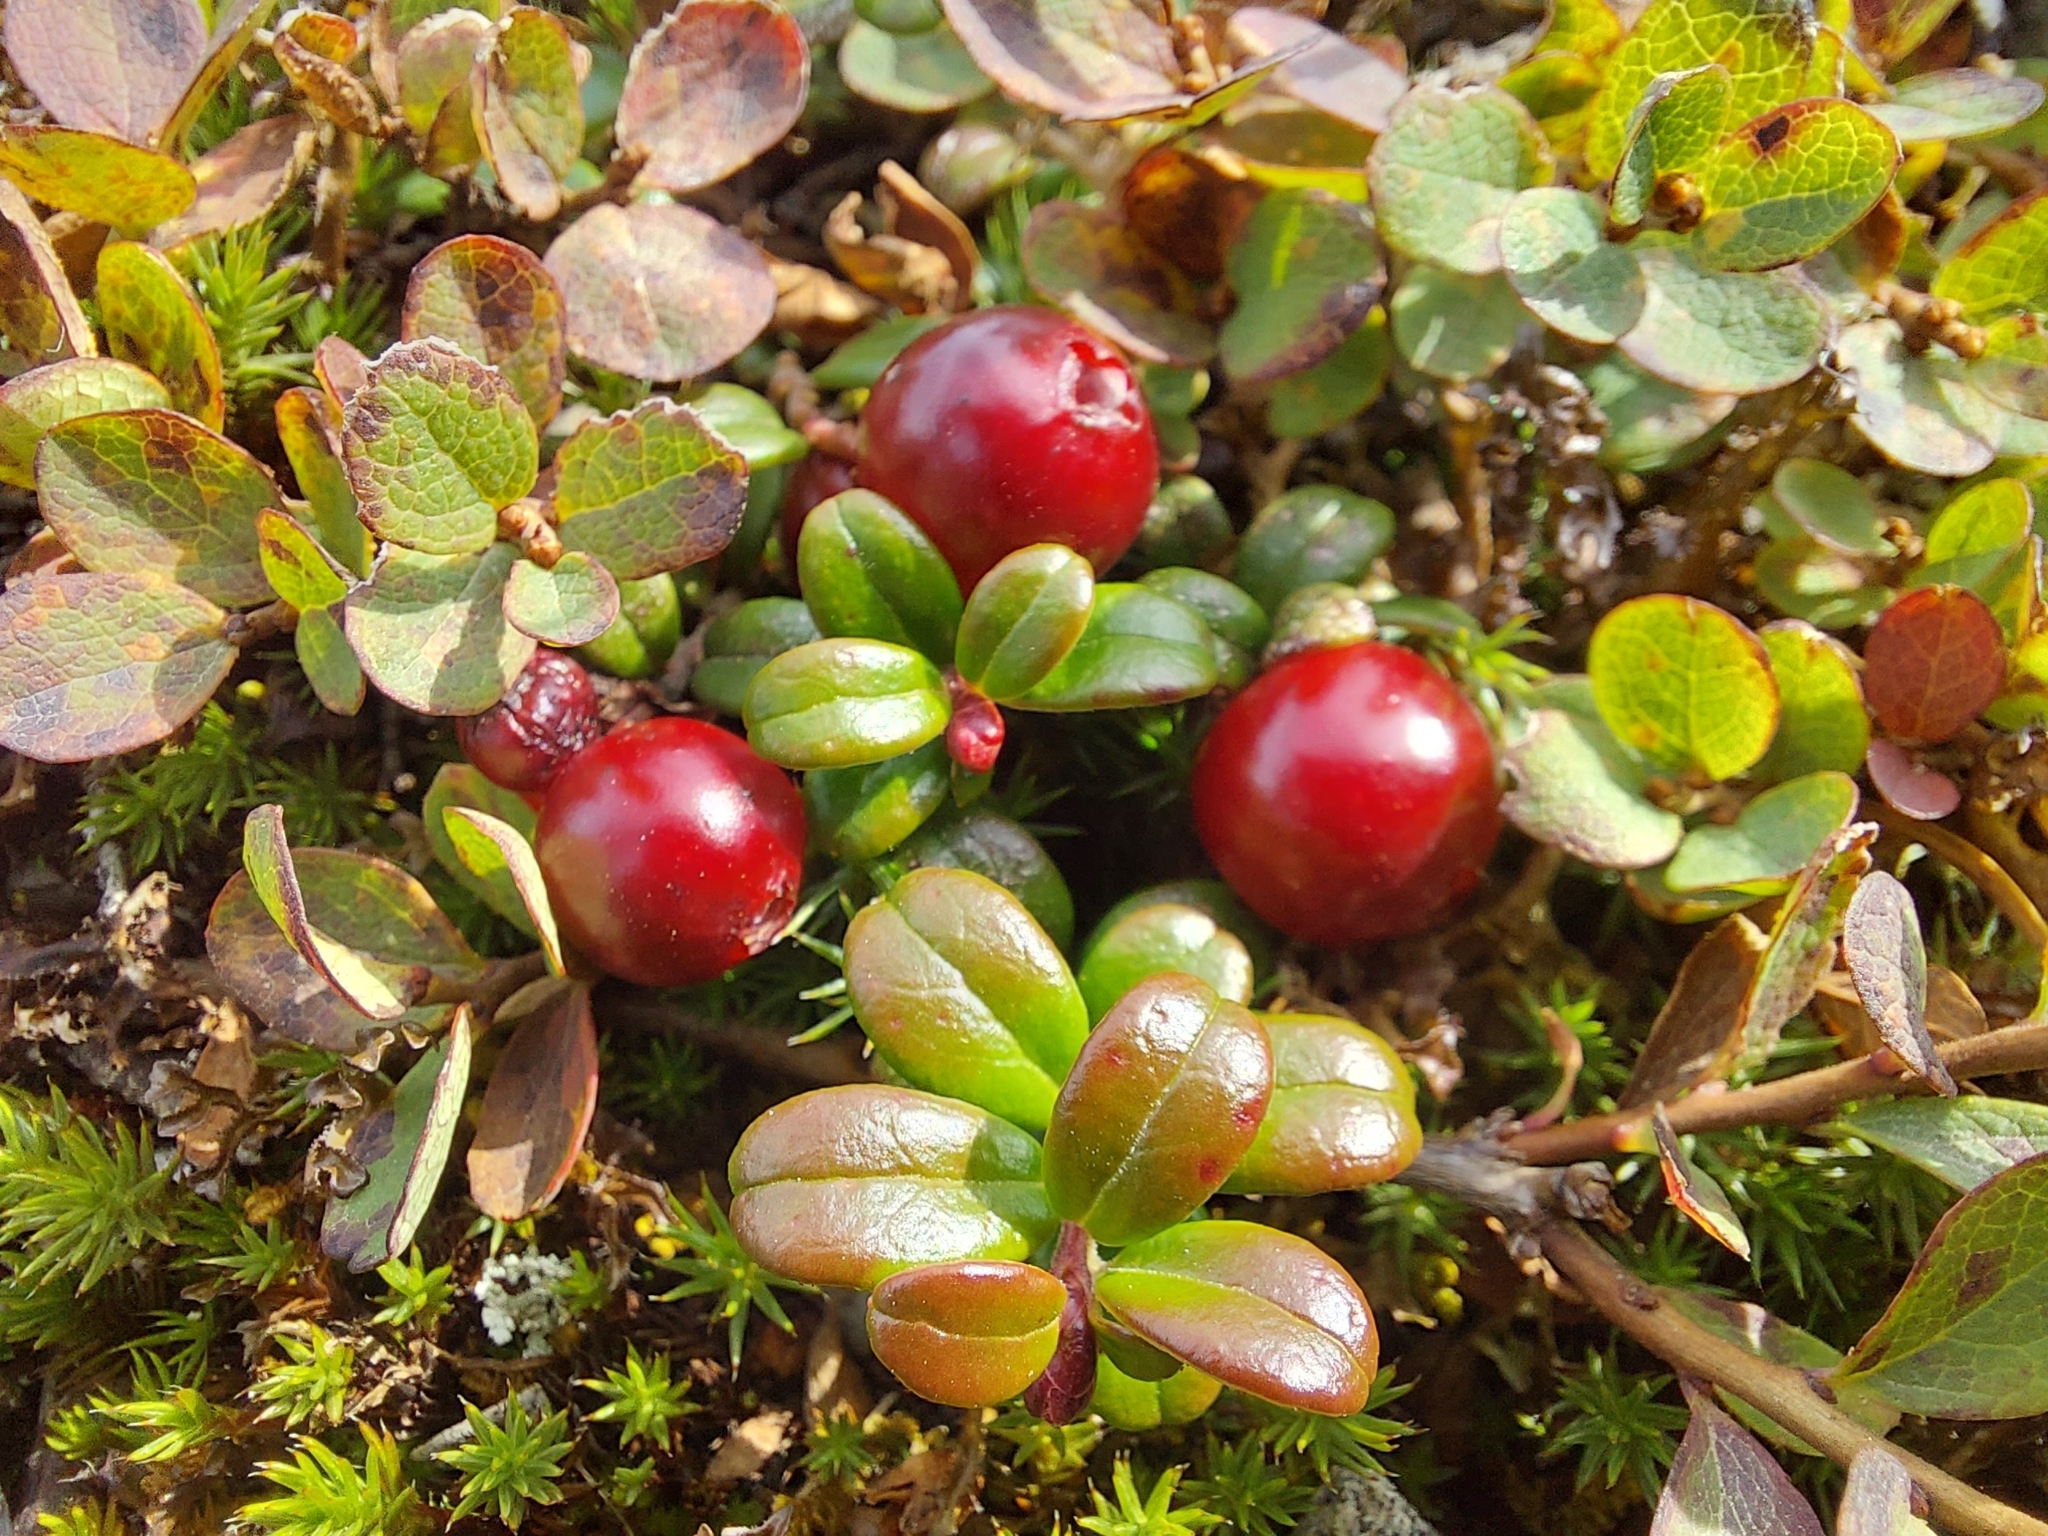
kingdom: Plantae
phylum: Tracheophyta
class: Magnoliopsida
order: Ericales
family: Ericaceae
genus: Vaccinium
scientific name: Vaccinium vitis-idaea
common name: Cowberry
